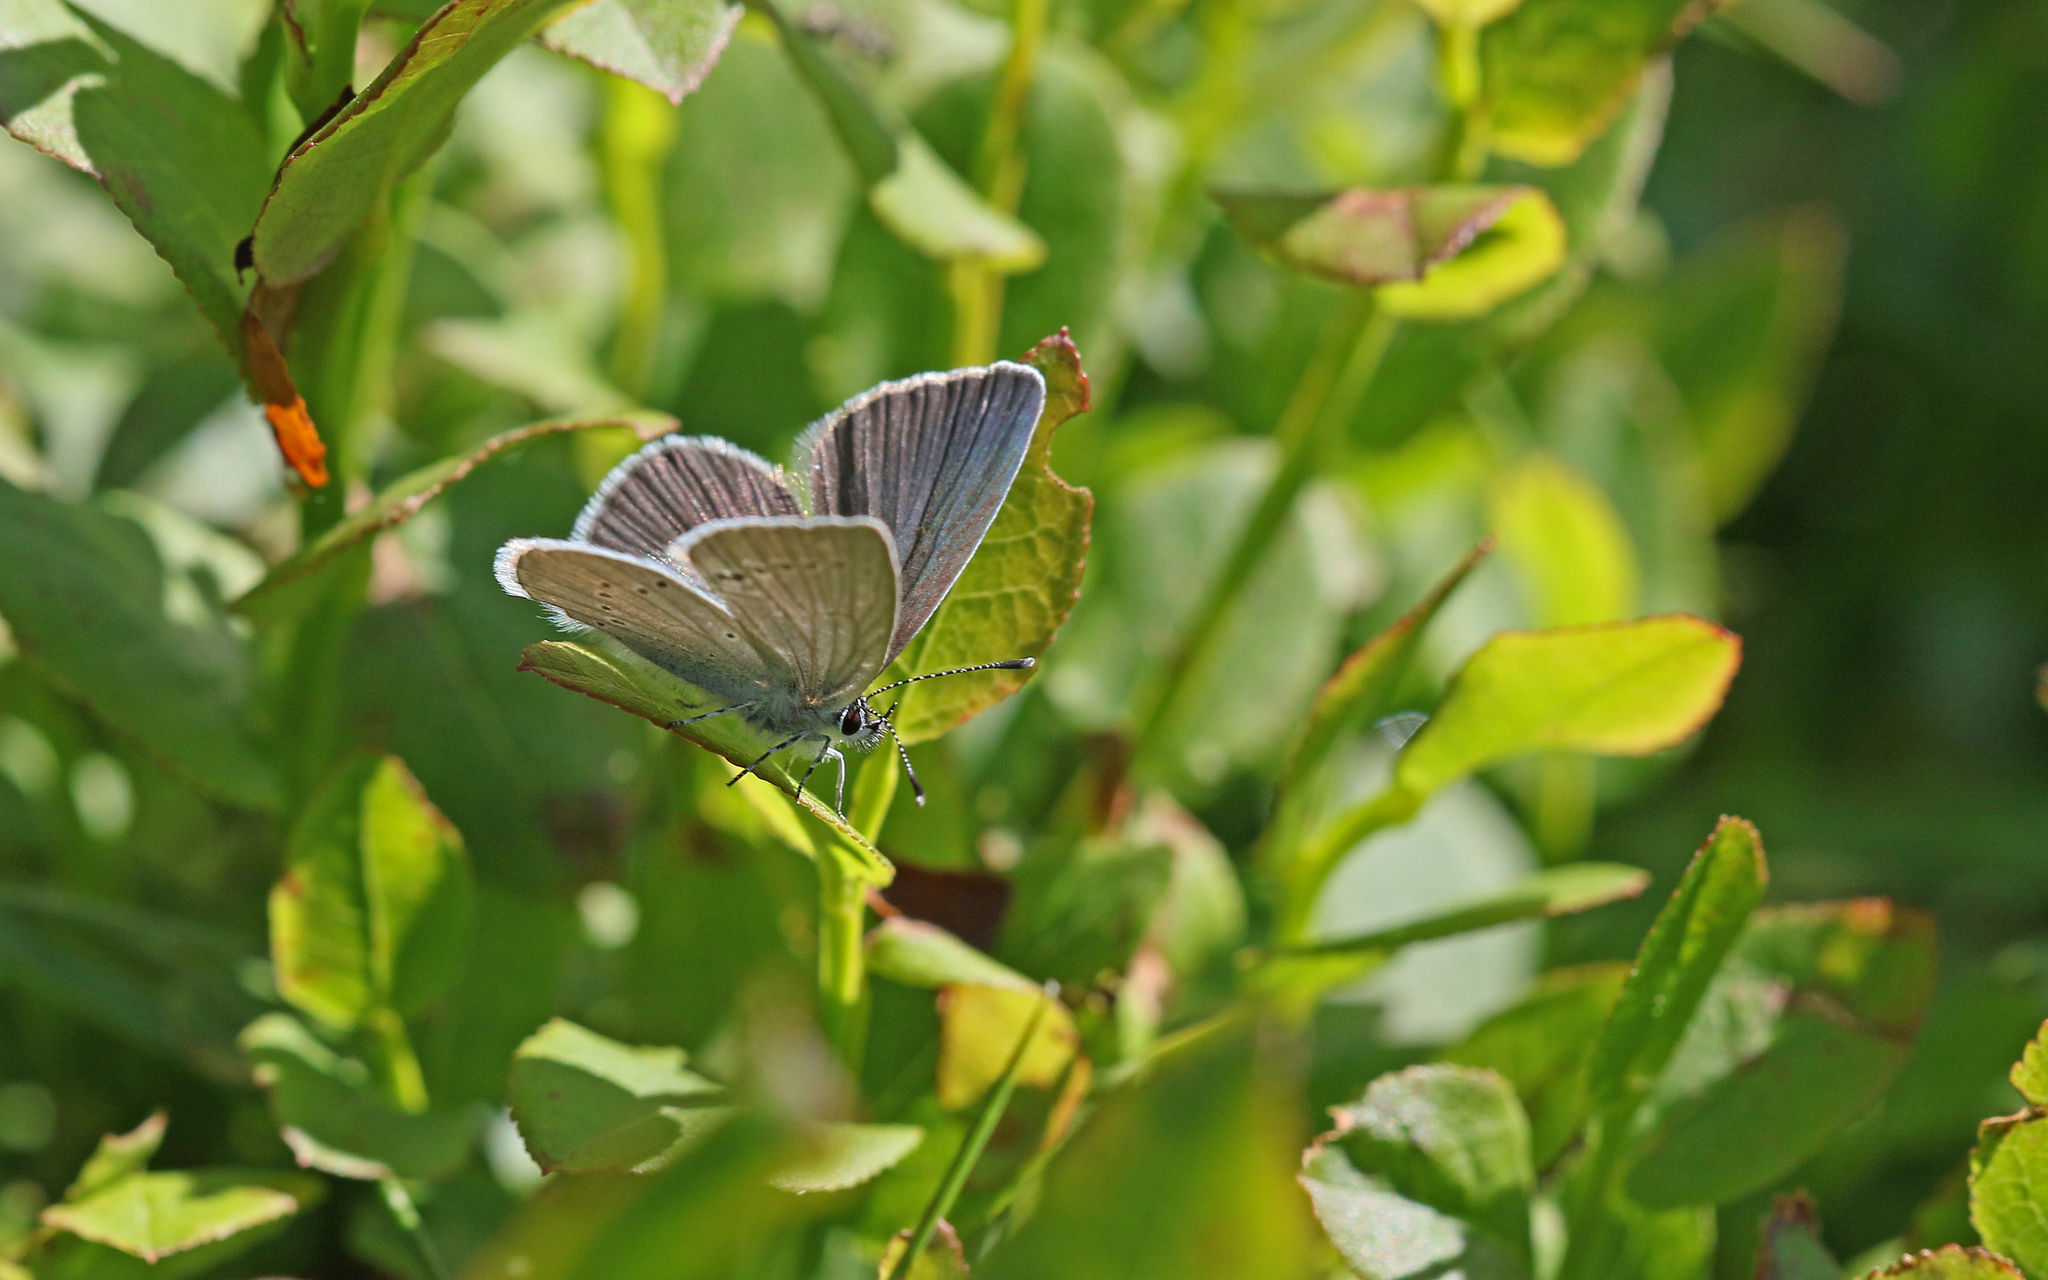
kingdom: Animalia
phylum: Arthropoda
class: Insecta
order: Lepidoptera
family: Lycaenidae
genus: Cupido
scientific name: Cupido minimus
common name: Small blue
